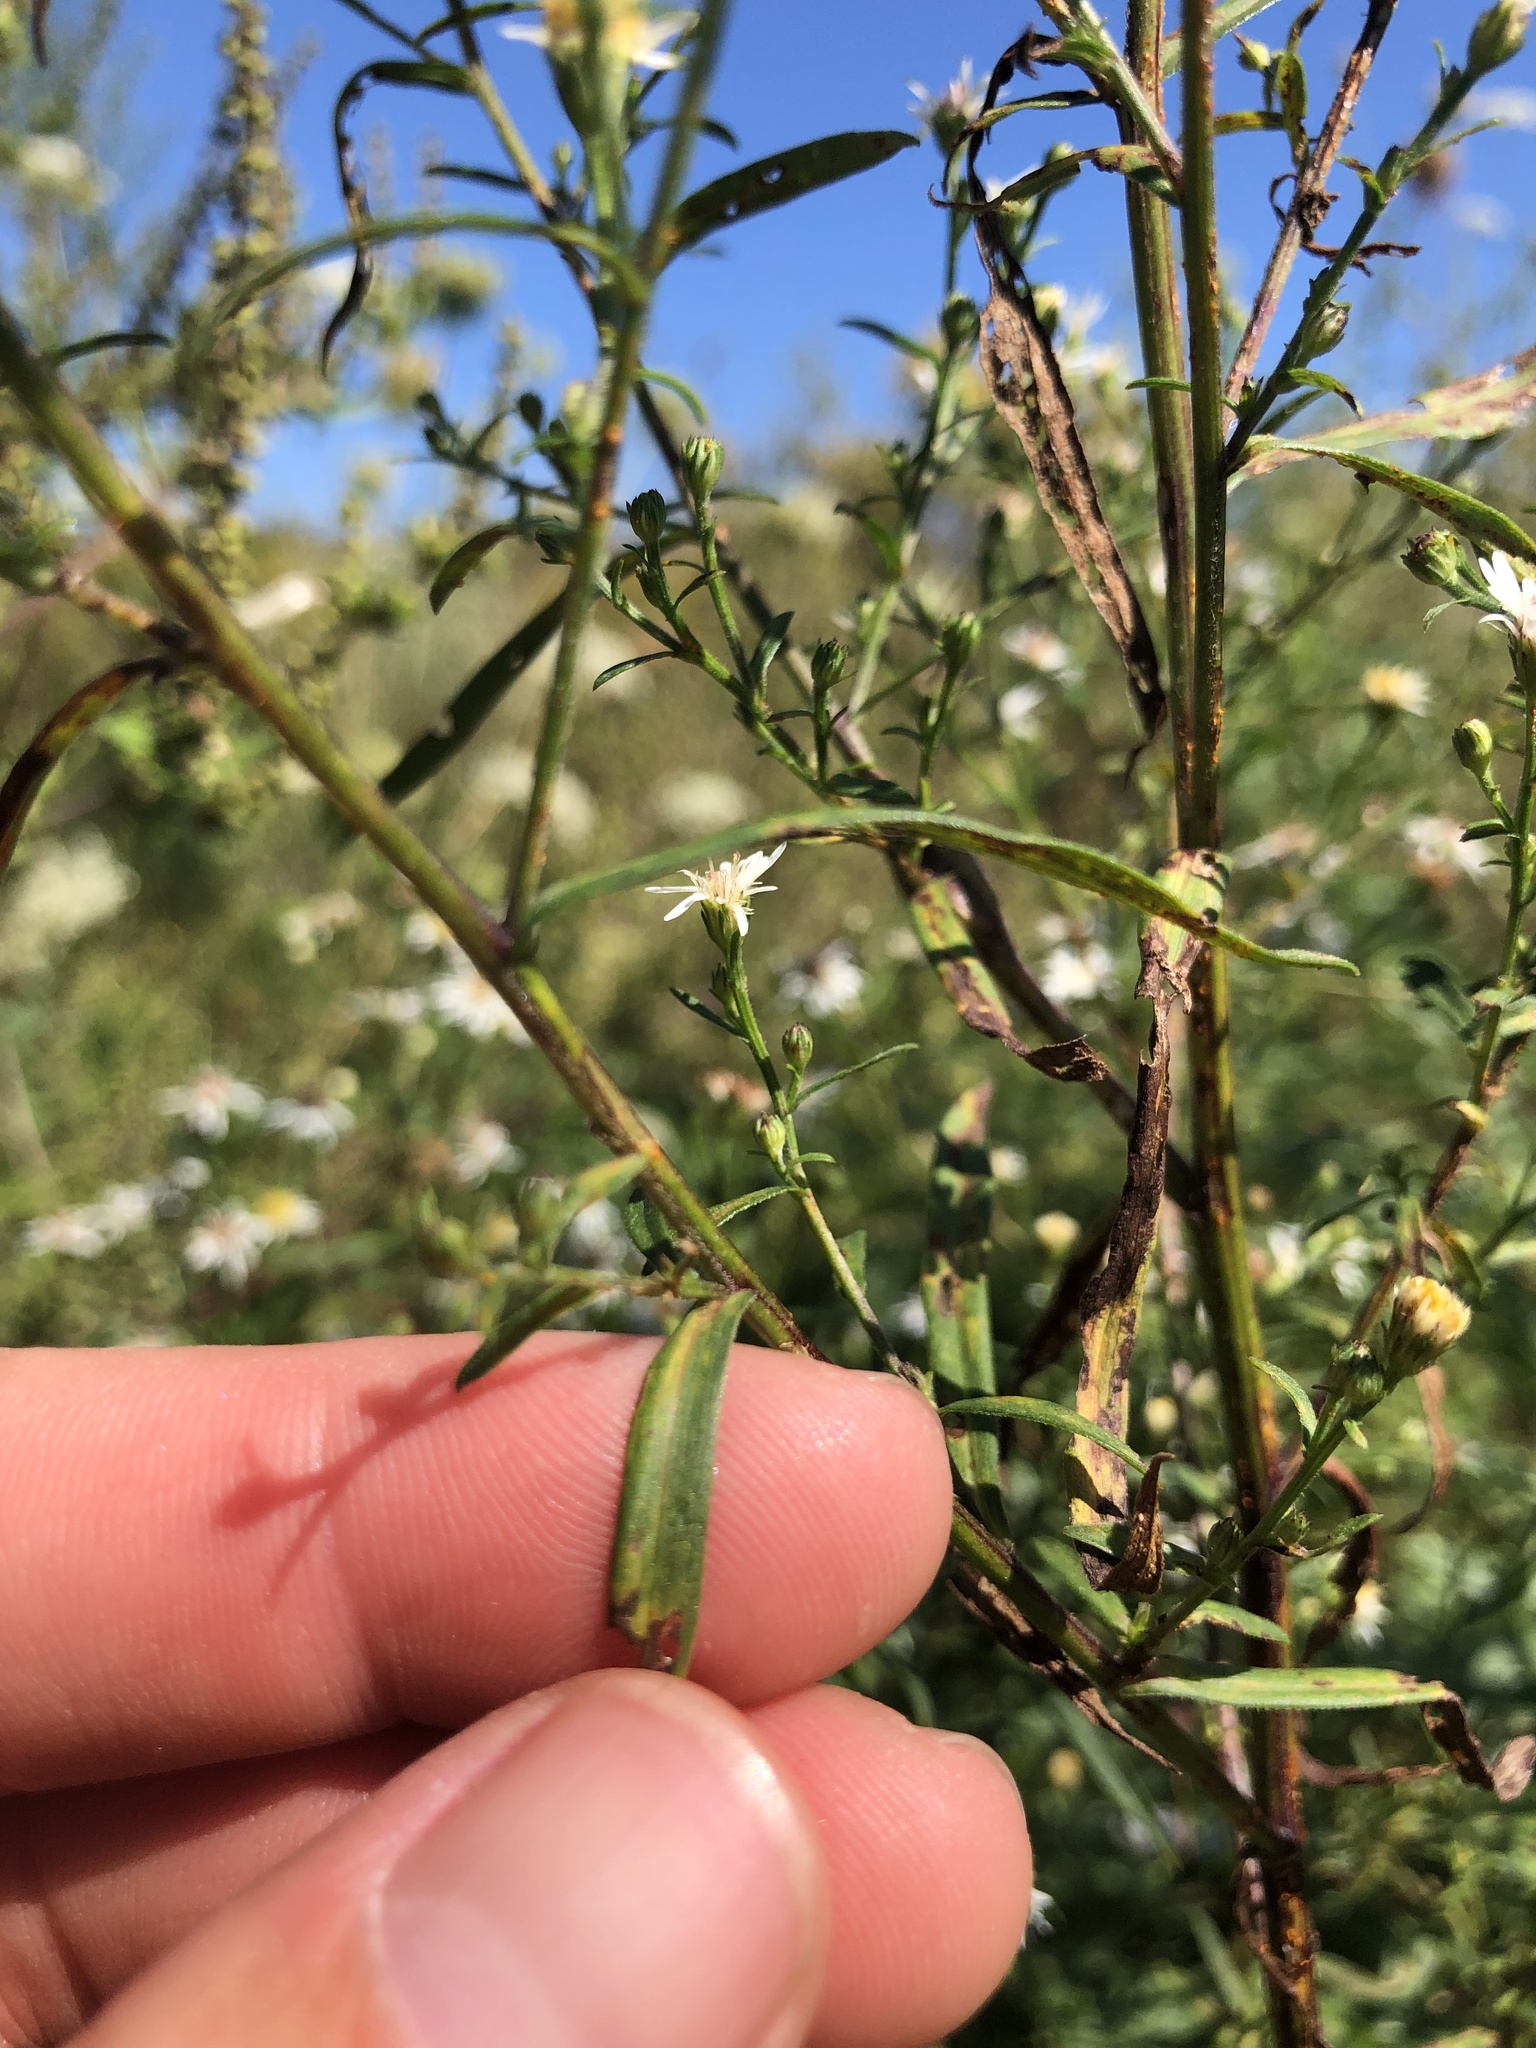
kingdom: Plantae
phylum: Tracheophyta
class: Magnoliopsida
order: Asterales
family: Asteraceae
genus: Symphyotrichum
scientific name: Symphyotrichum lanceolatum
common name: Panicled aster
